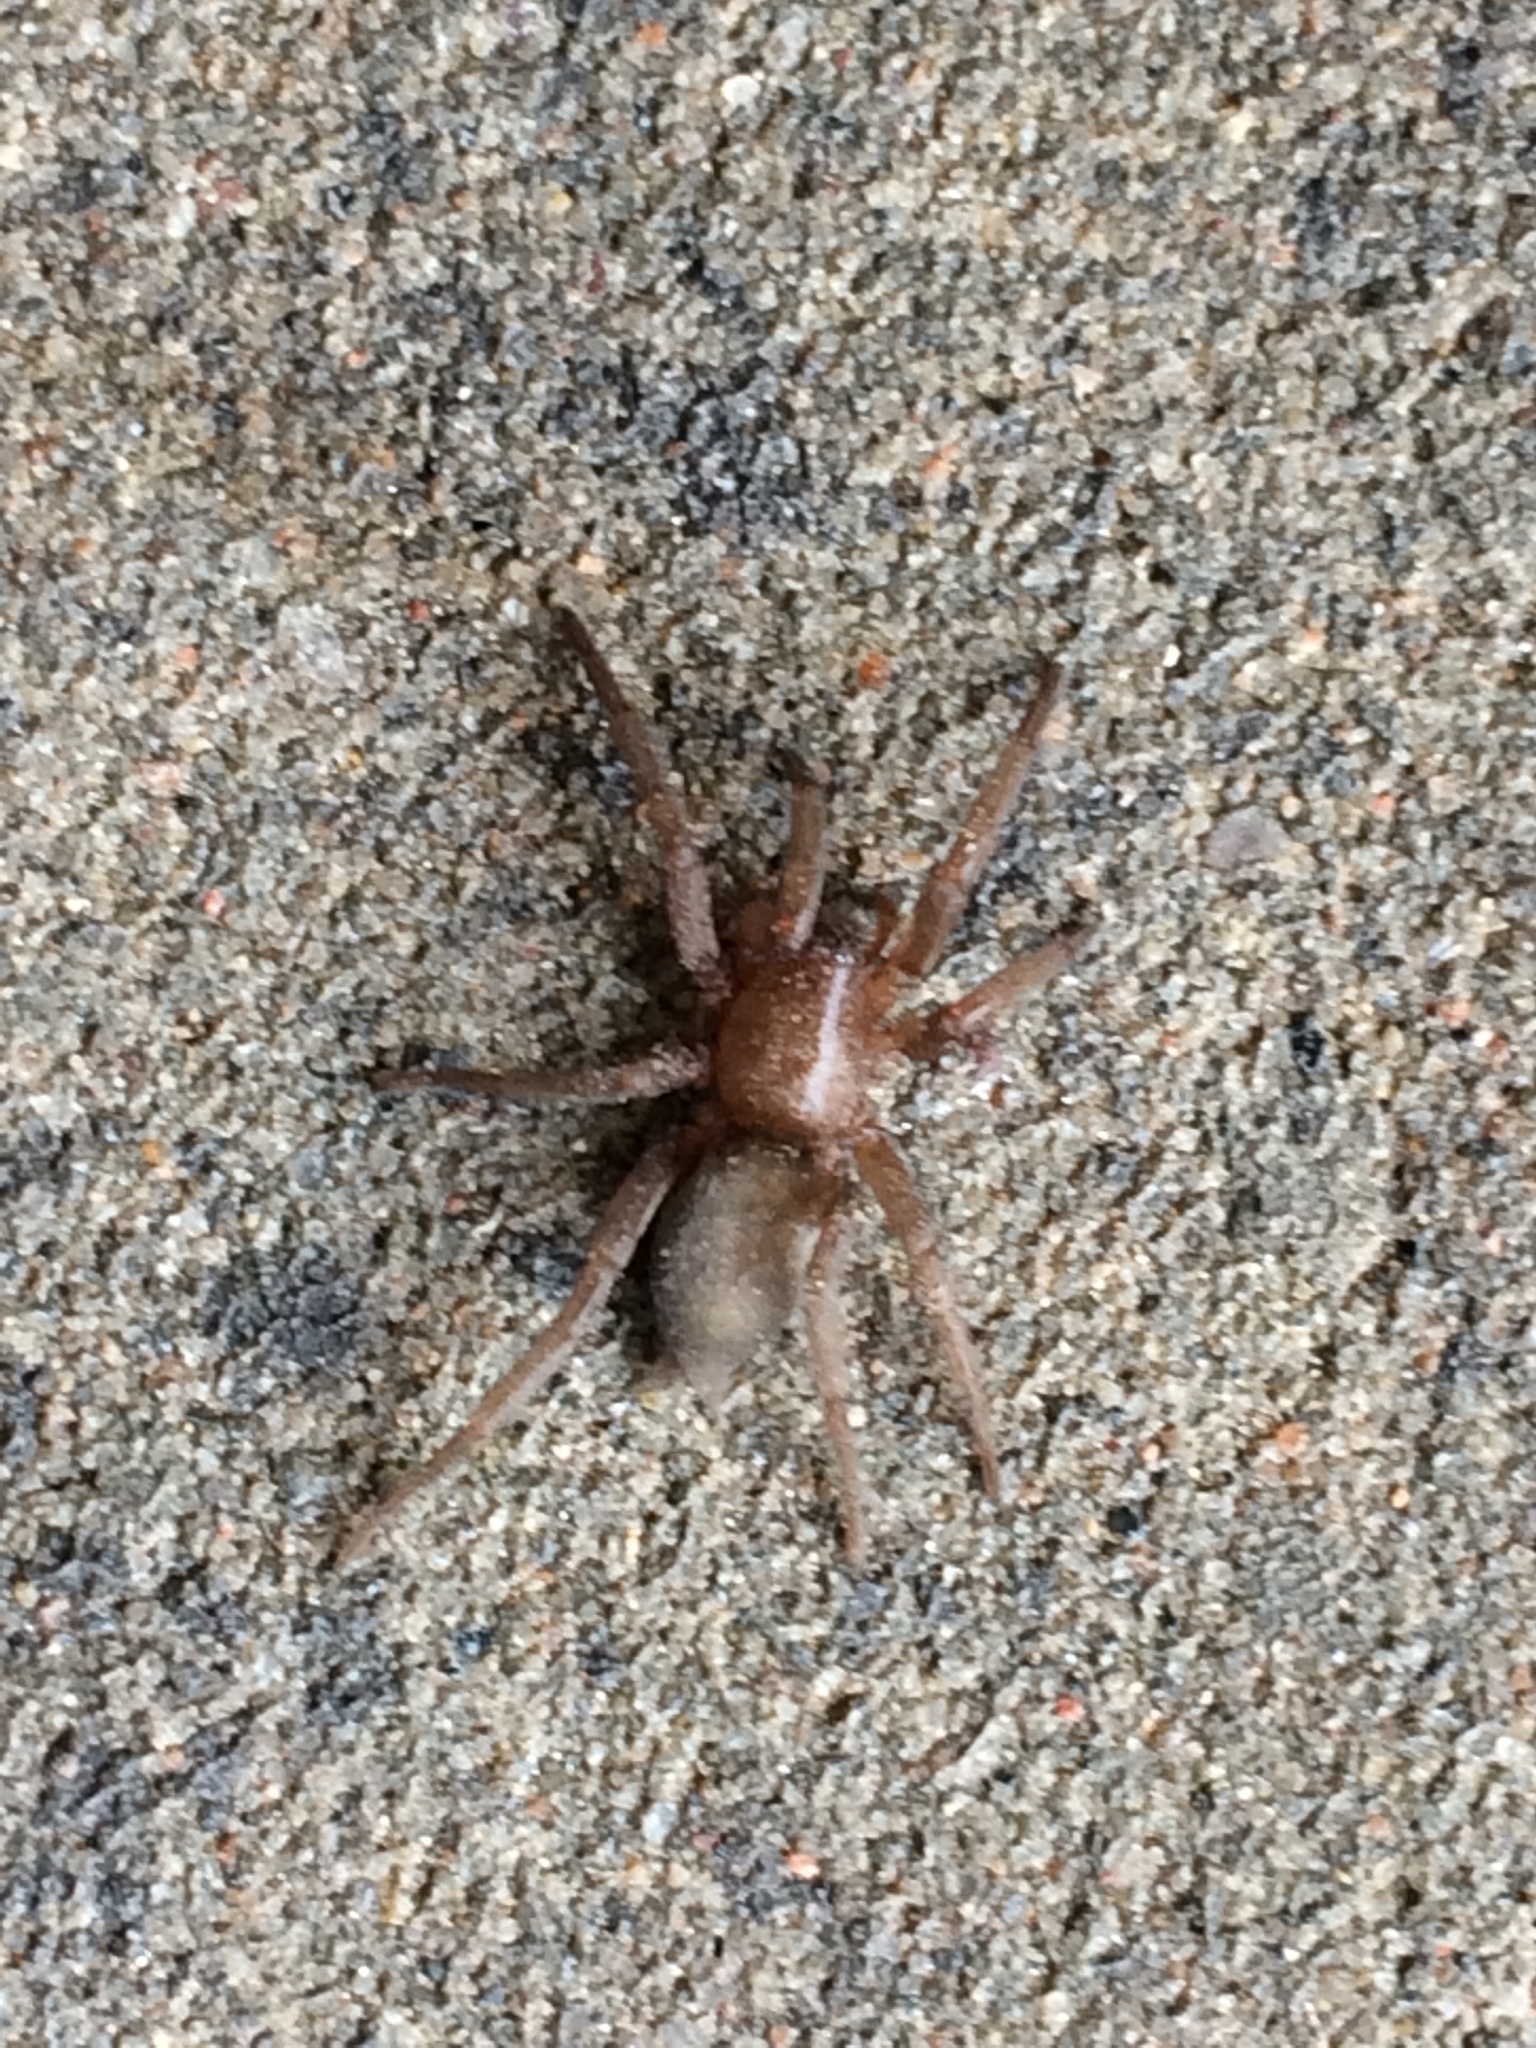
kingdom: Animalia
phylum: Arthropoda
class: Arachnida
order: Araneae
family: Gnaphosidae
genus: Scotophaeus
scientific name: Scotophaeus blackwalli
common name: Mouse spider
